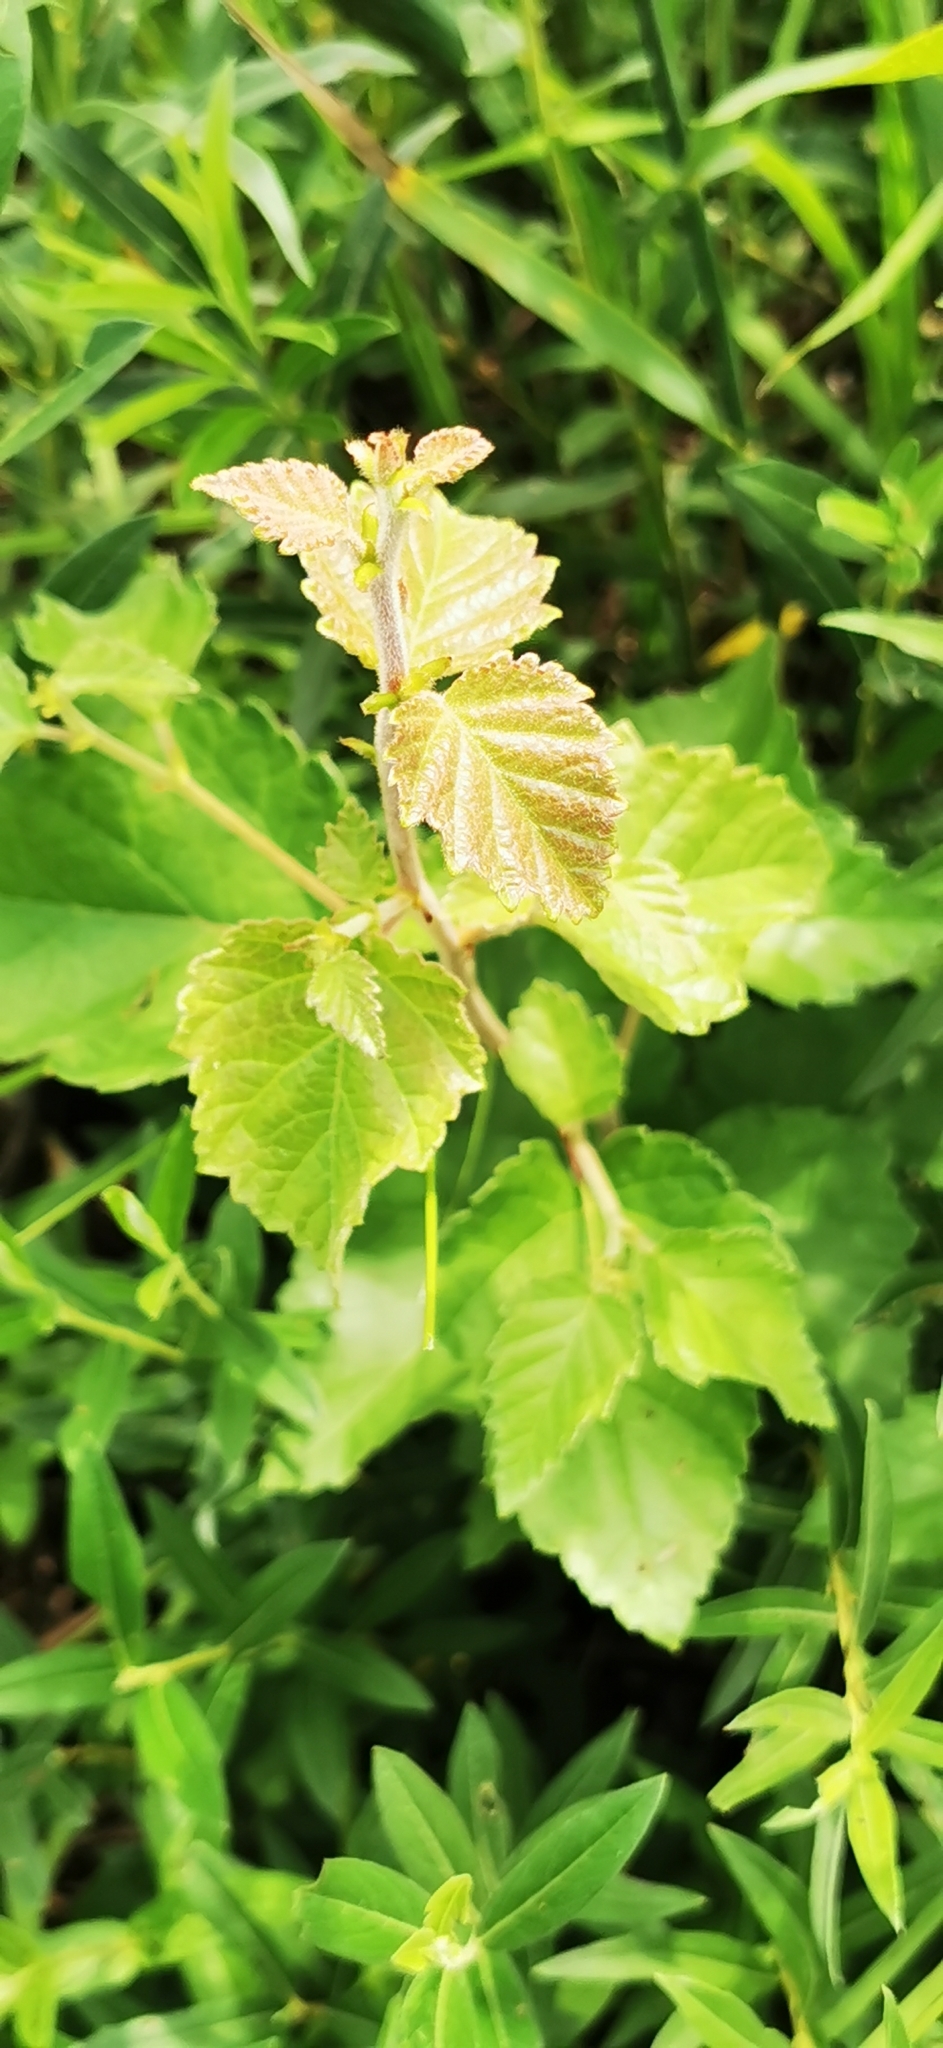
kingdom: Plantae
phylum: Tracheophyta
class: Magnoliopsida
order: Fagales
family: Betulaceae
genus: Betula
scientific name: Betula pubescens
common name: Downy birch
